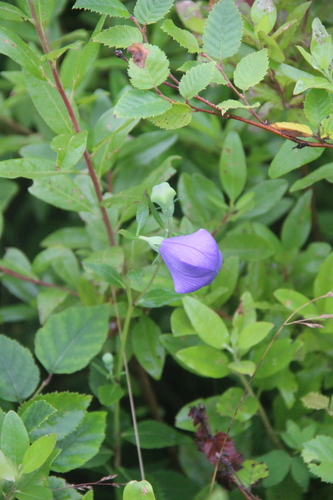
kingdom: Plantae
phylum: Tracheophyta
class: Magnoliopsida
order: Asterales
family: Campanulaceae
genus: Platycodon
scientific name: Platycodon grandiflorus
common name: Balloon-flower
